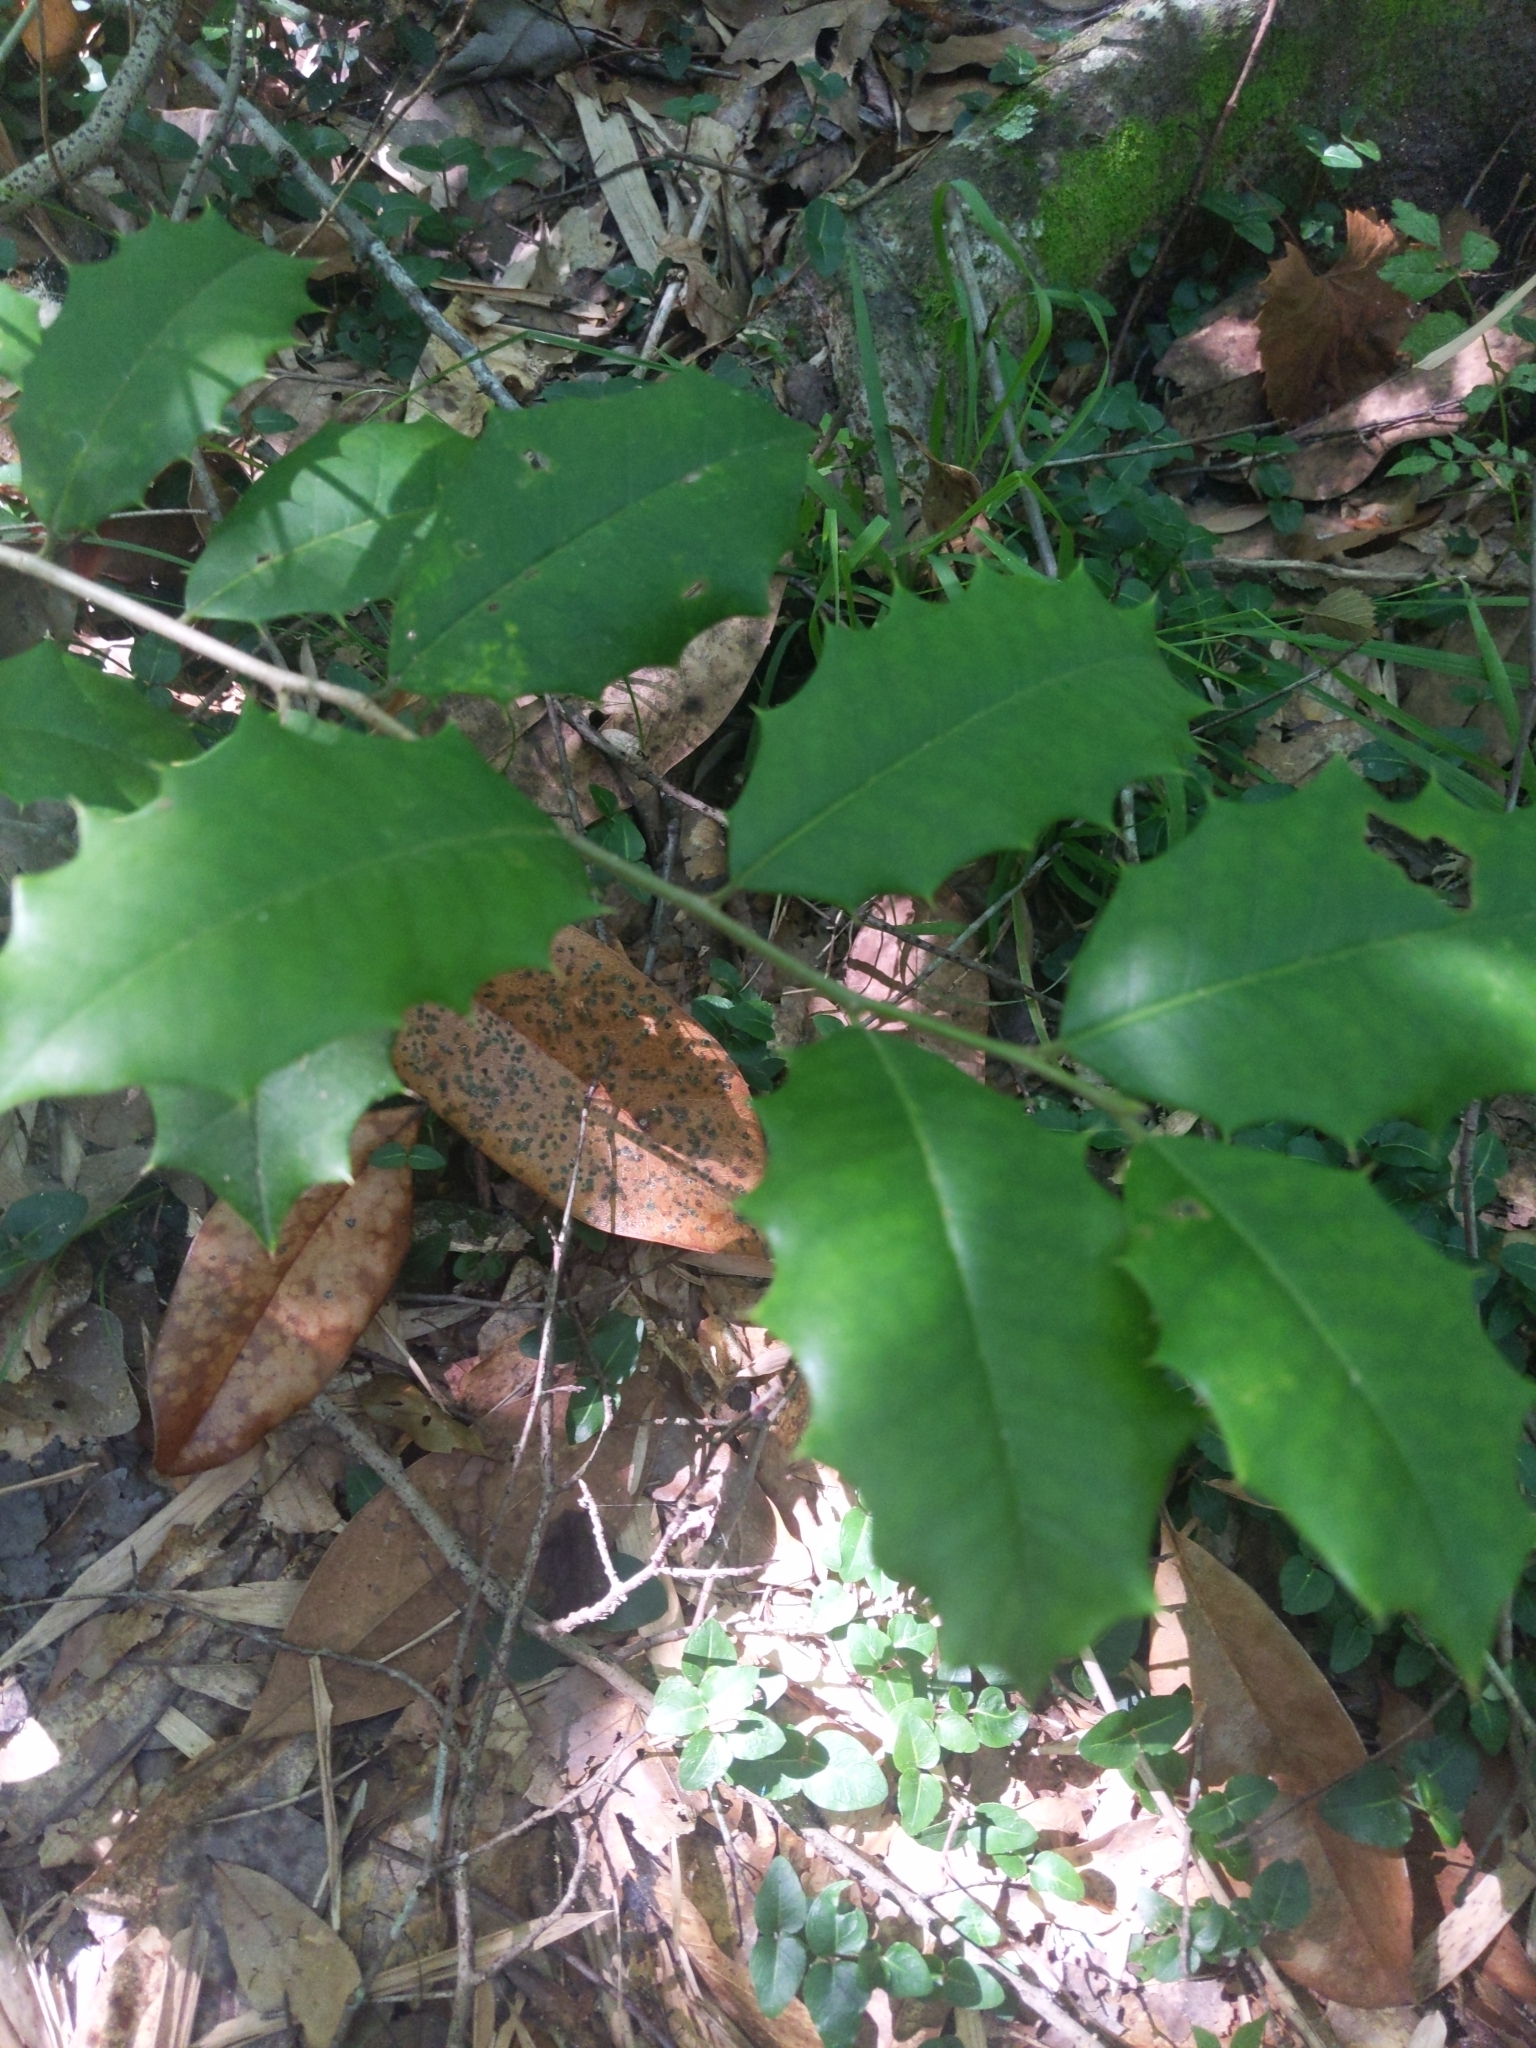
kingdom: Plantae
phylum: Tracheophyta
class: Magnoliopsida
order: Aquifoliales
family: Aquifoliaceae
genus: Ilex
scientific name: Ilex opaca
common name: American holly
